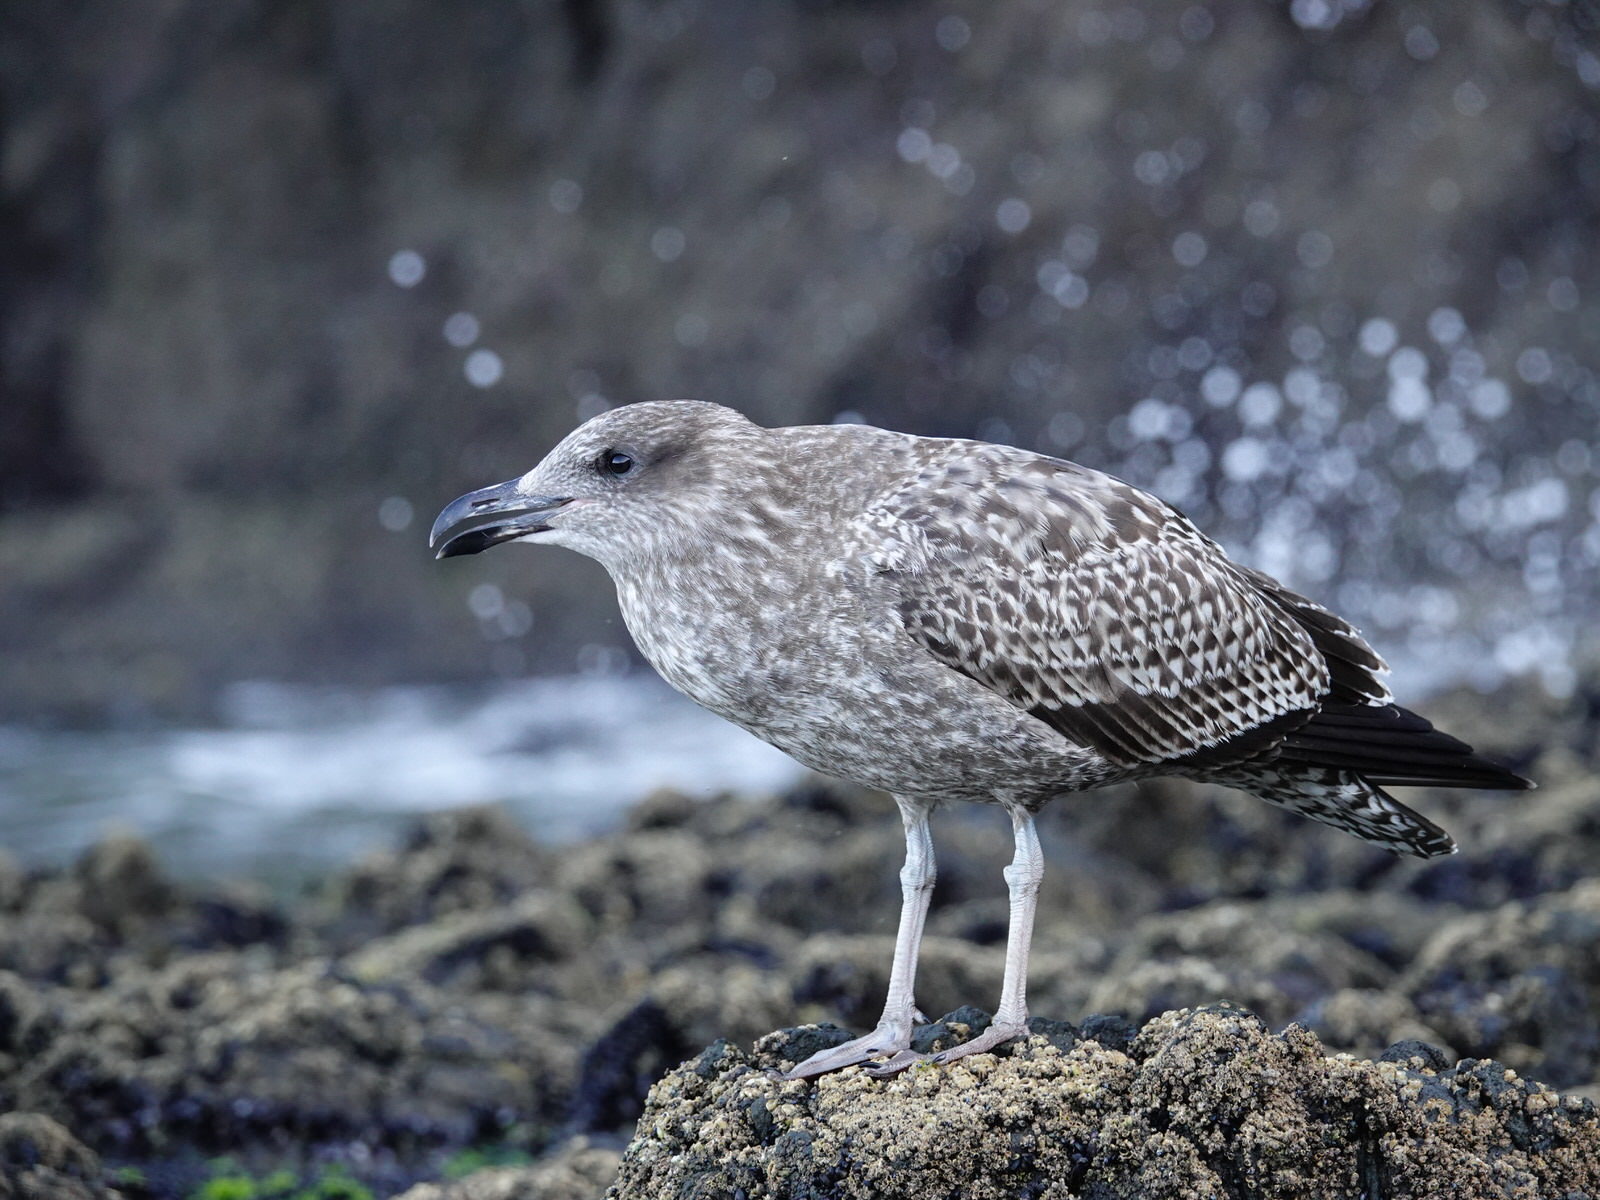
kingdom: Animalia
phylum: Chordata
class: Aves
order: Charadriiformes
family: Laridae
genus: Larus
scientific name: Larus dominicanus
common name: Kelp gull
